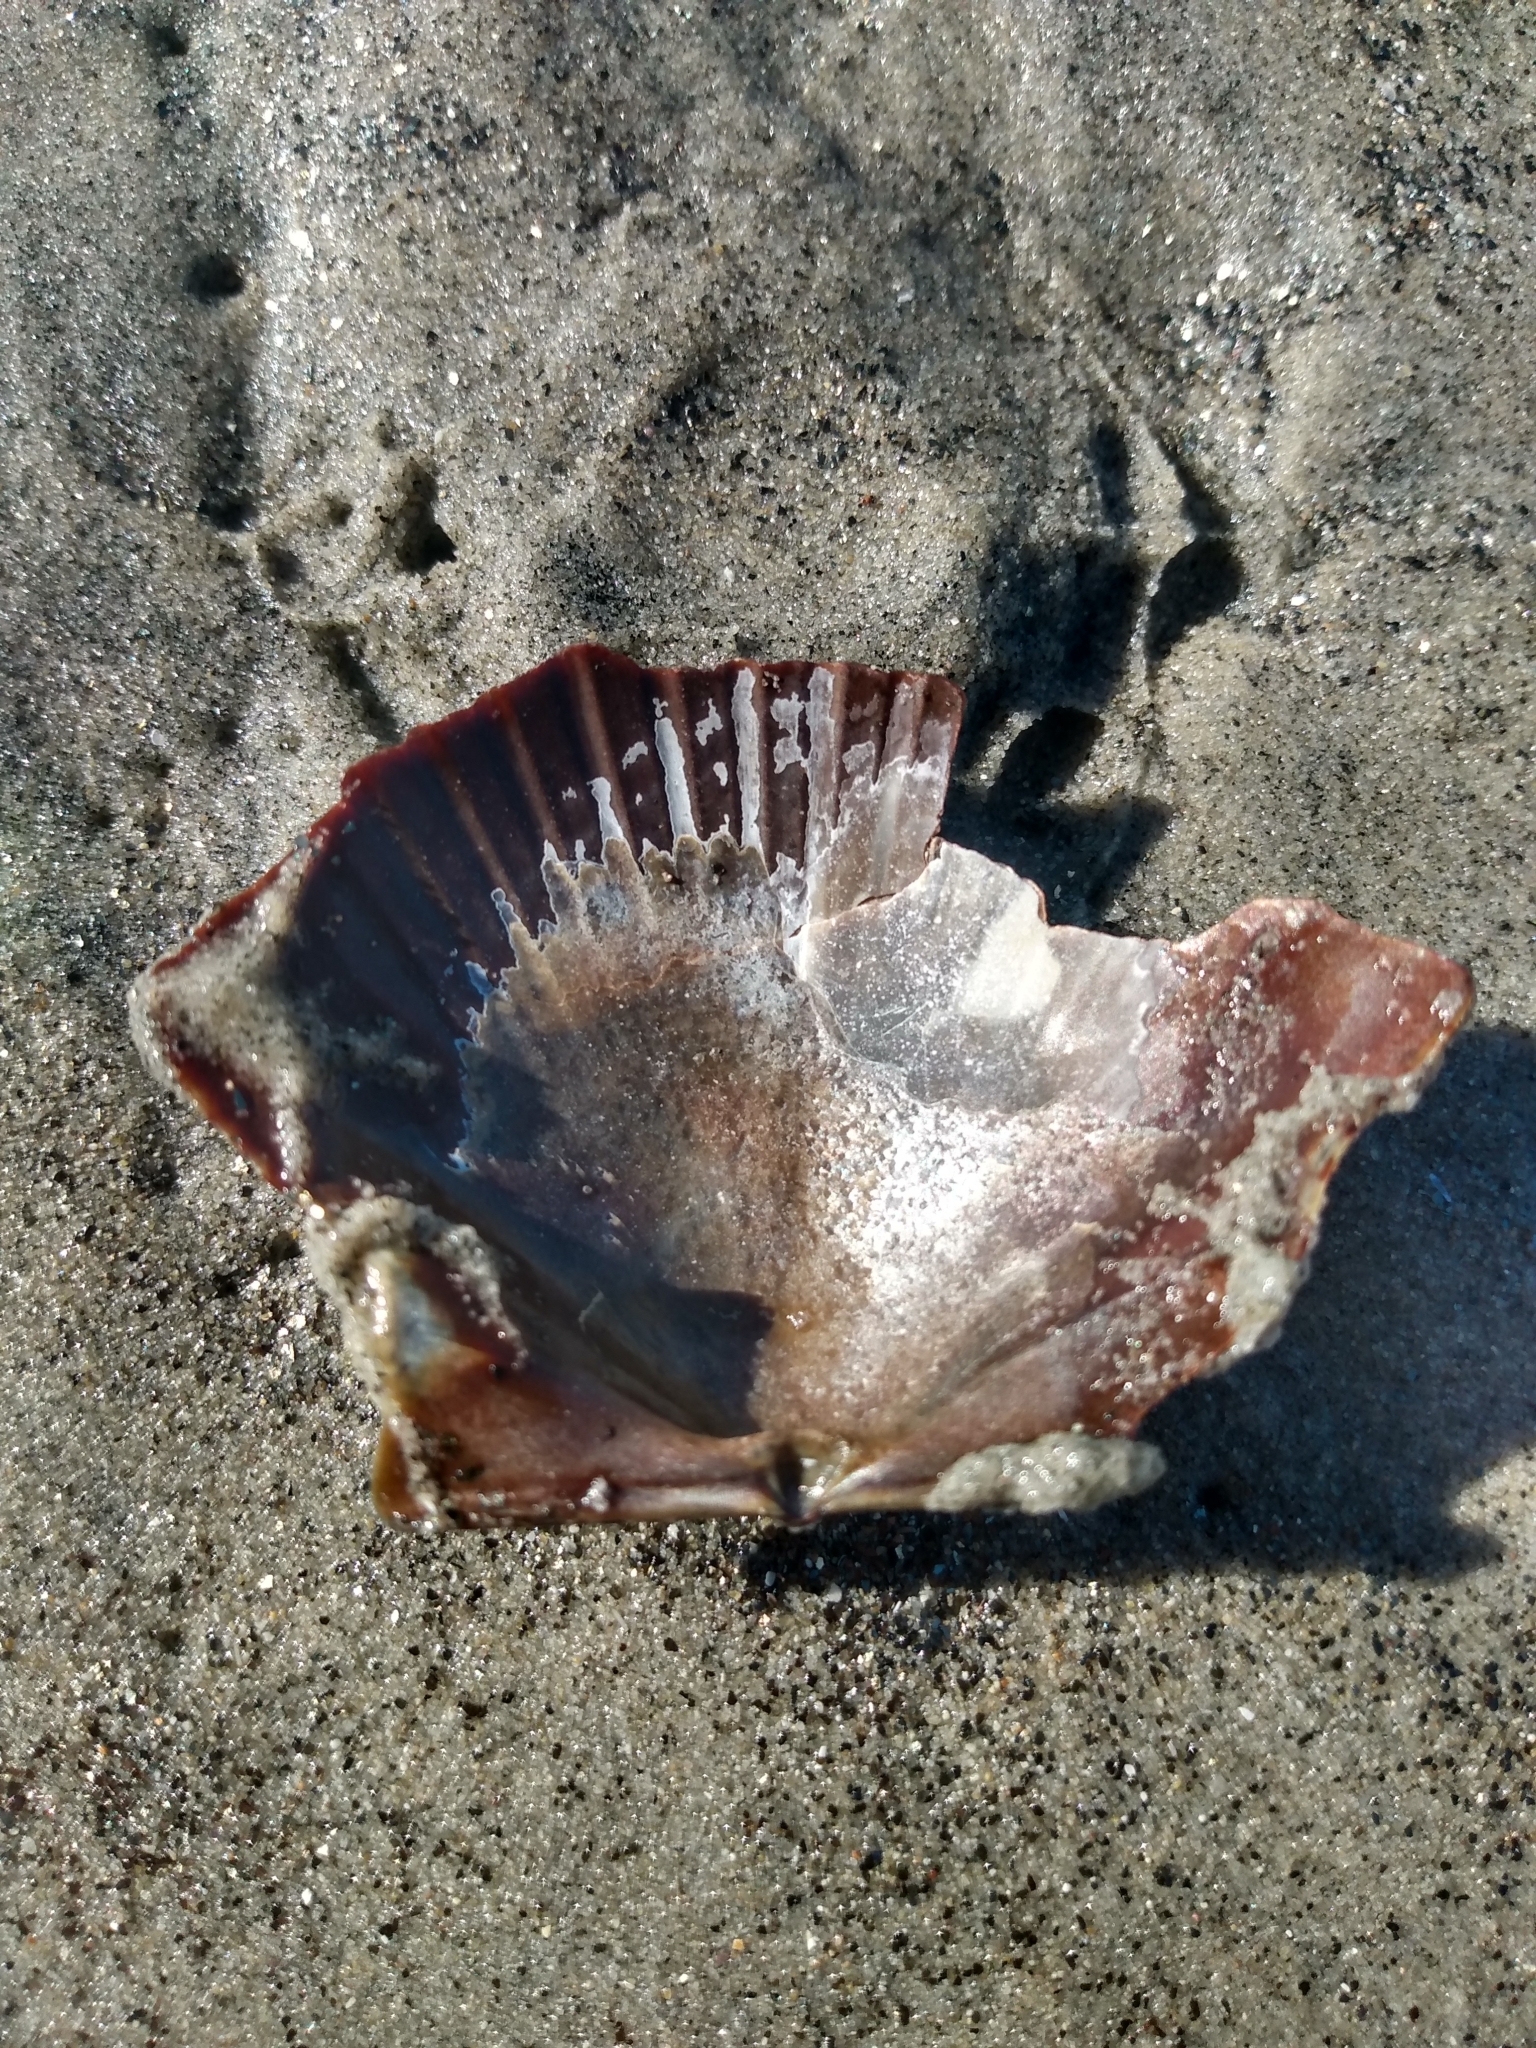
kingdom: Animalia
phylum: Mollusca
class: Bivalvia
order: Pectinida
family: Pectinidae
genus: Argopecten
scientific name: Argopecten ventricosus
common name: Catarina scallop
